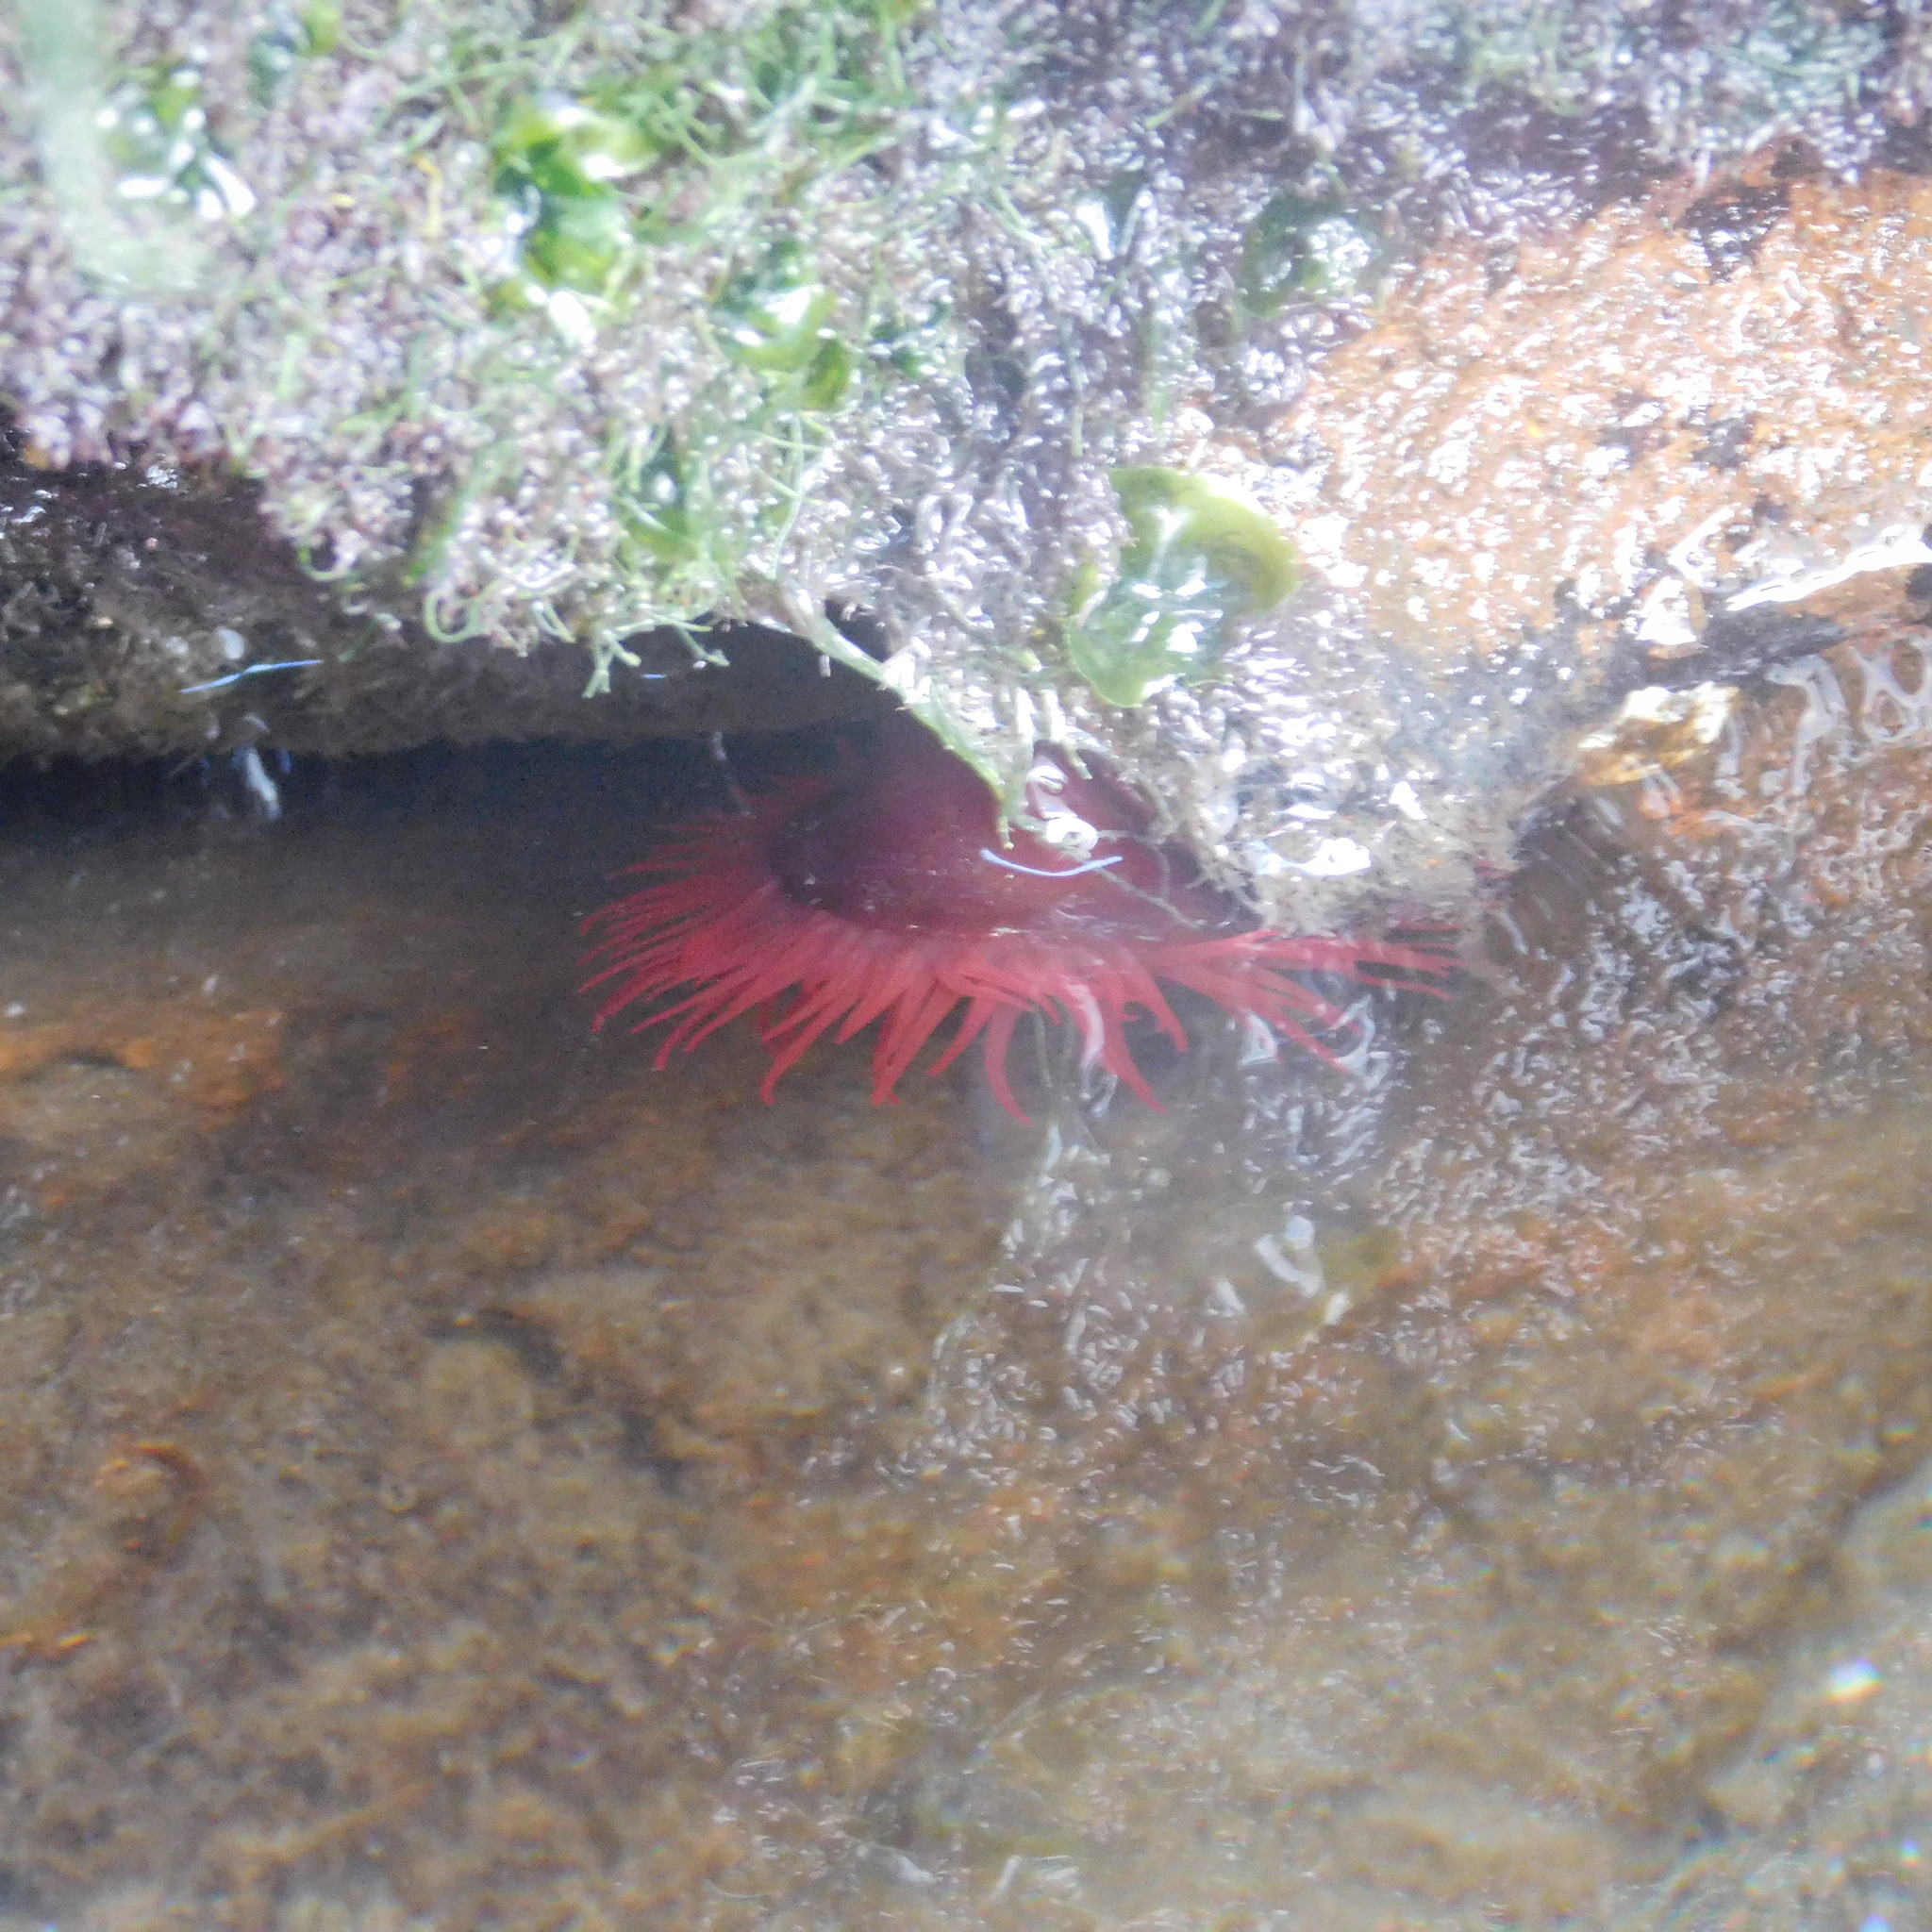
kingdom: Animalia
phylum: Cnidaria
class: Anthozoa
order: Actiniaria
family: Actiniidae
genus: Actinia
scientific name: Actinia tenebrosa
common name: Waratah anemone
